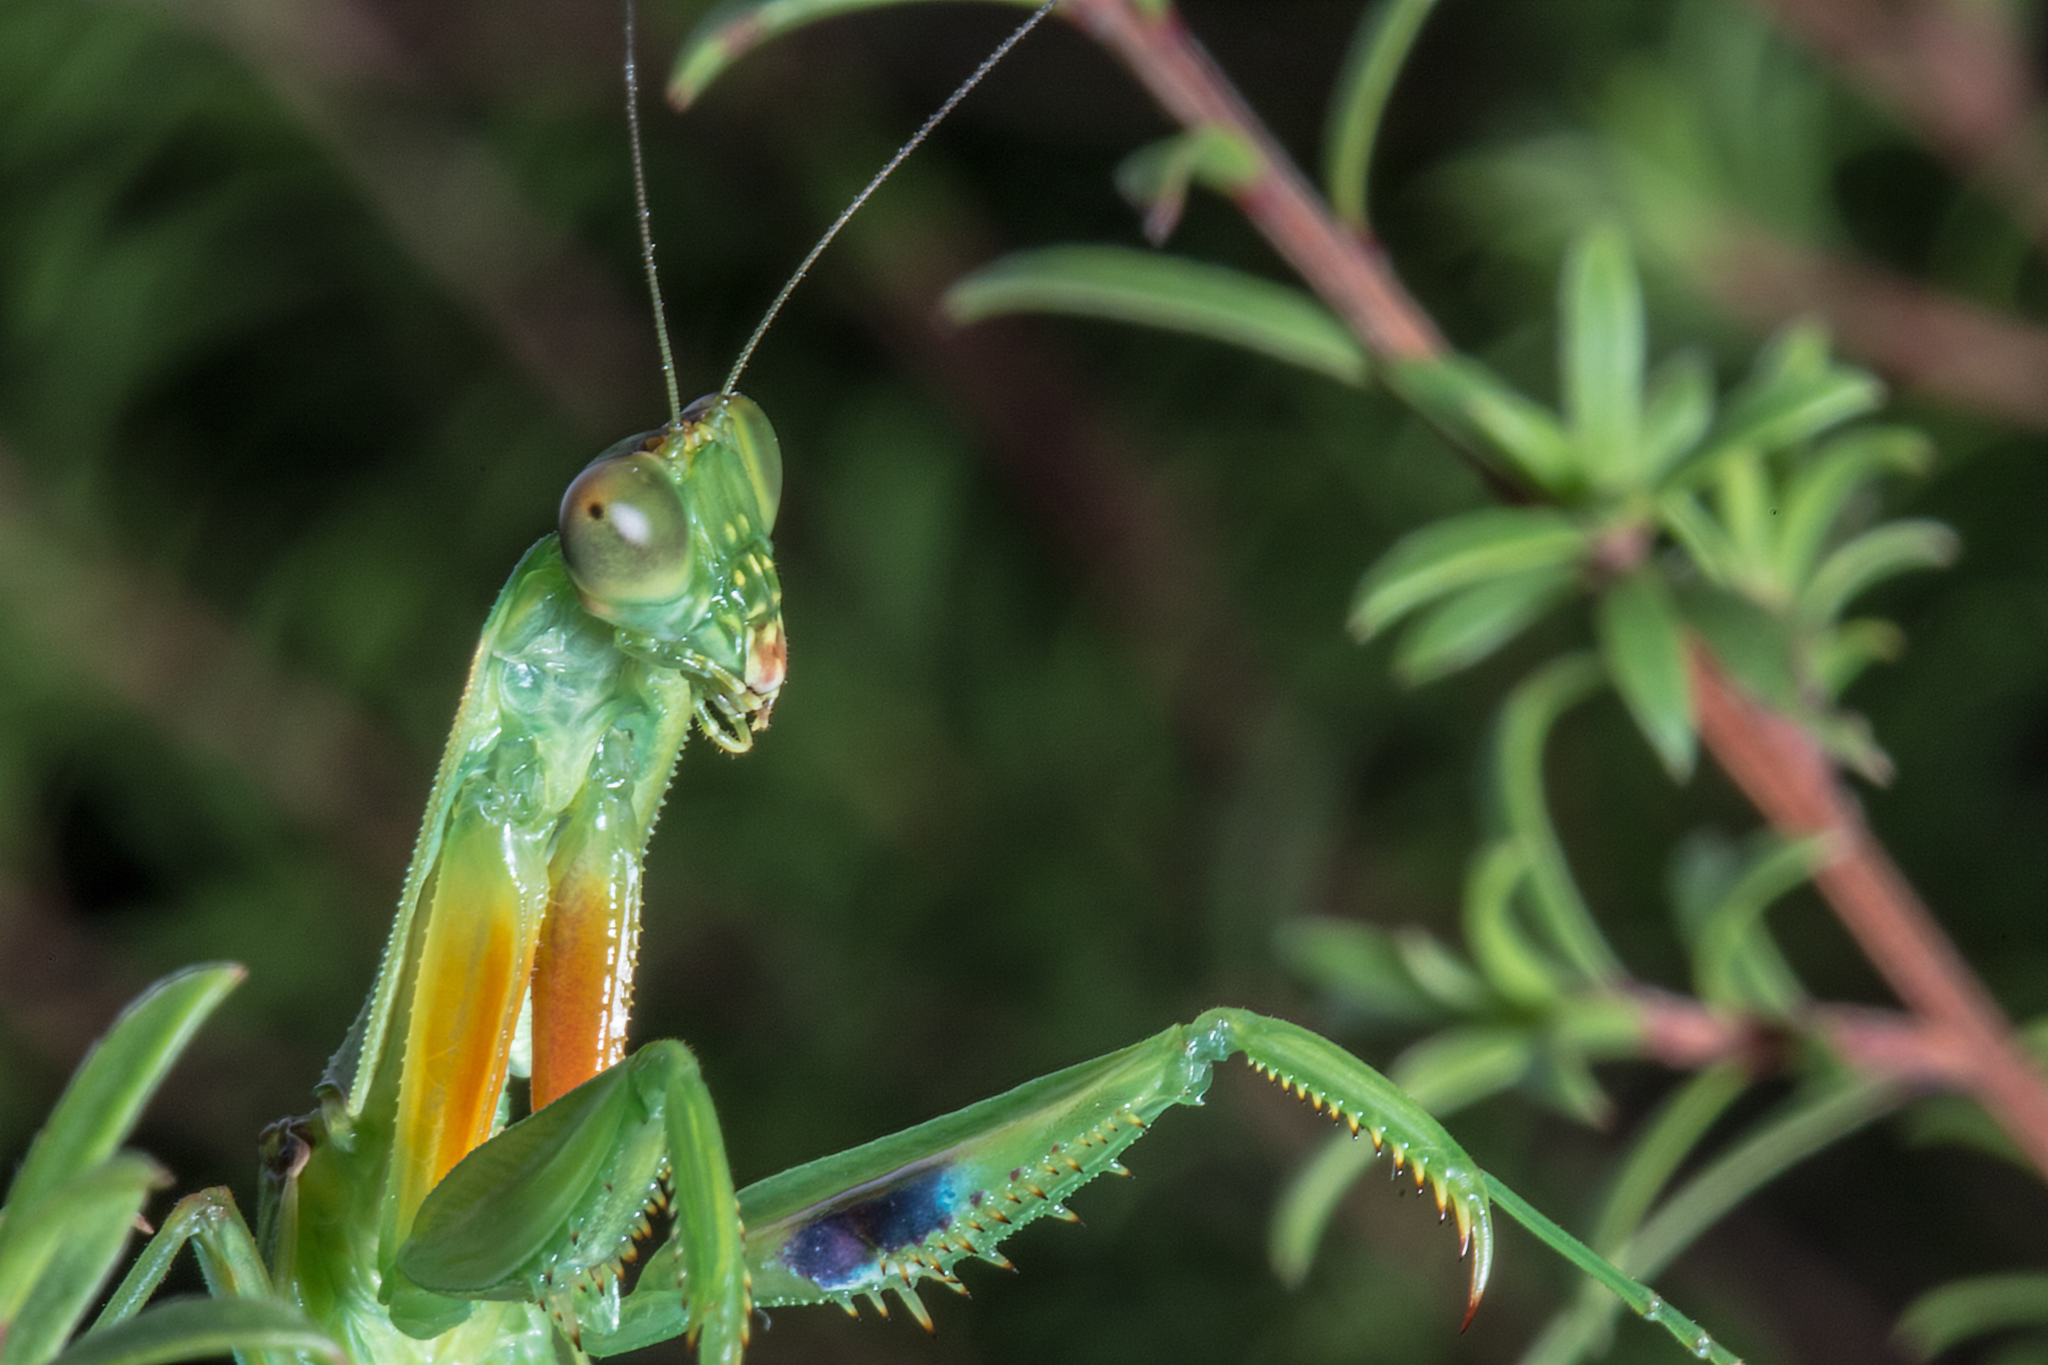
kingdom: Animalia
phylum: Arthropoda
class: Insecta
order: Mantodea
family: Mantidae
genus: Orthodera
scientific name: Orthodera novaezealandiae
